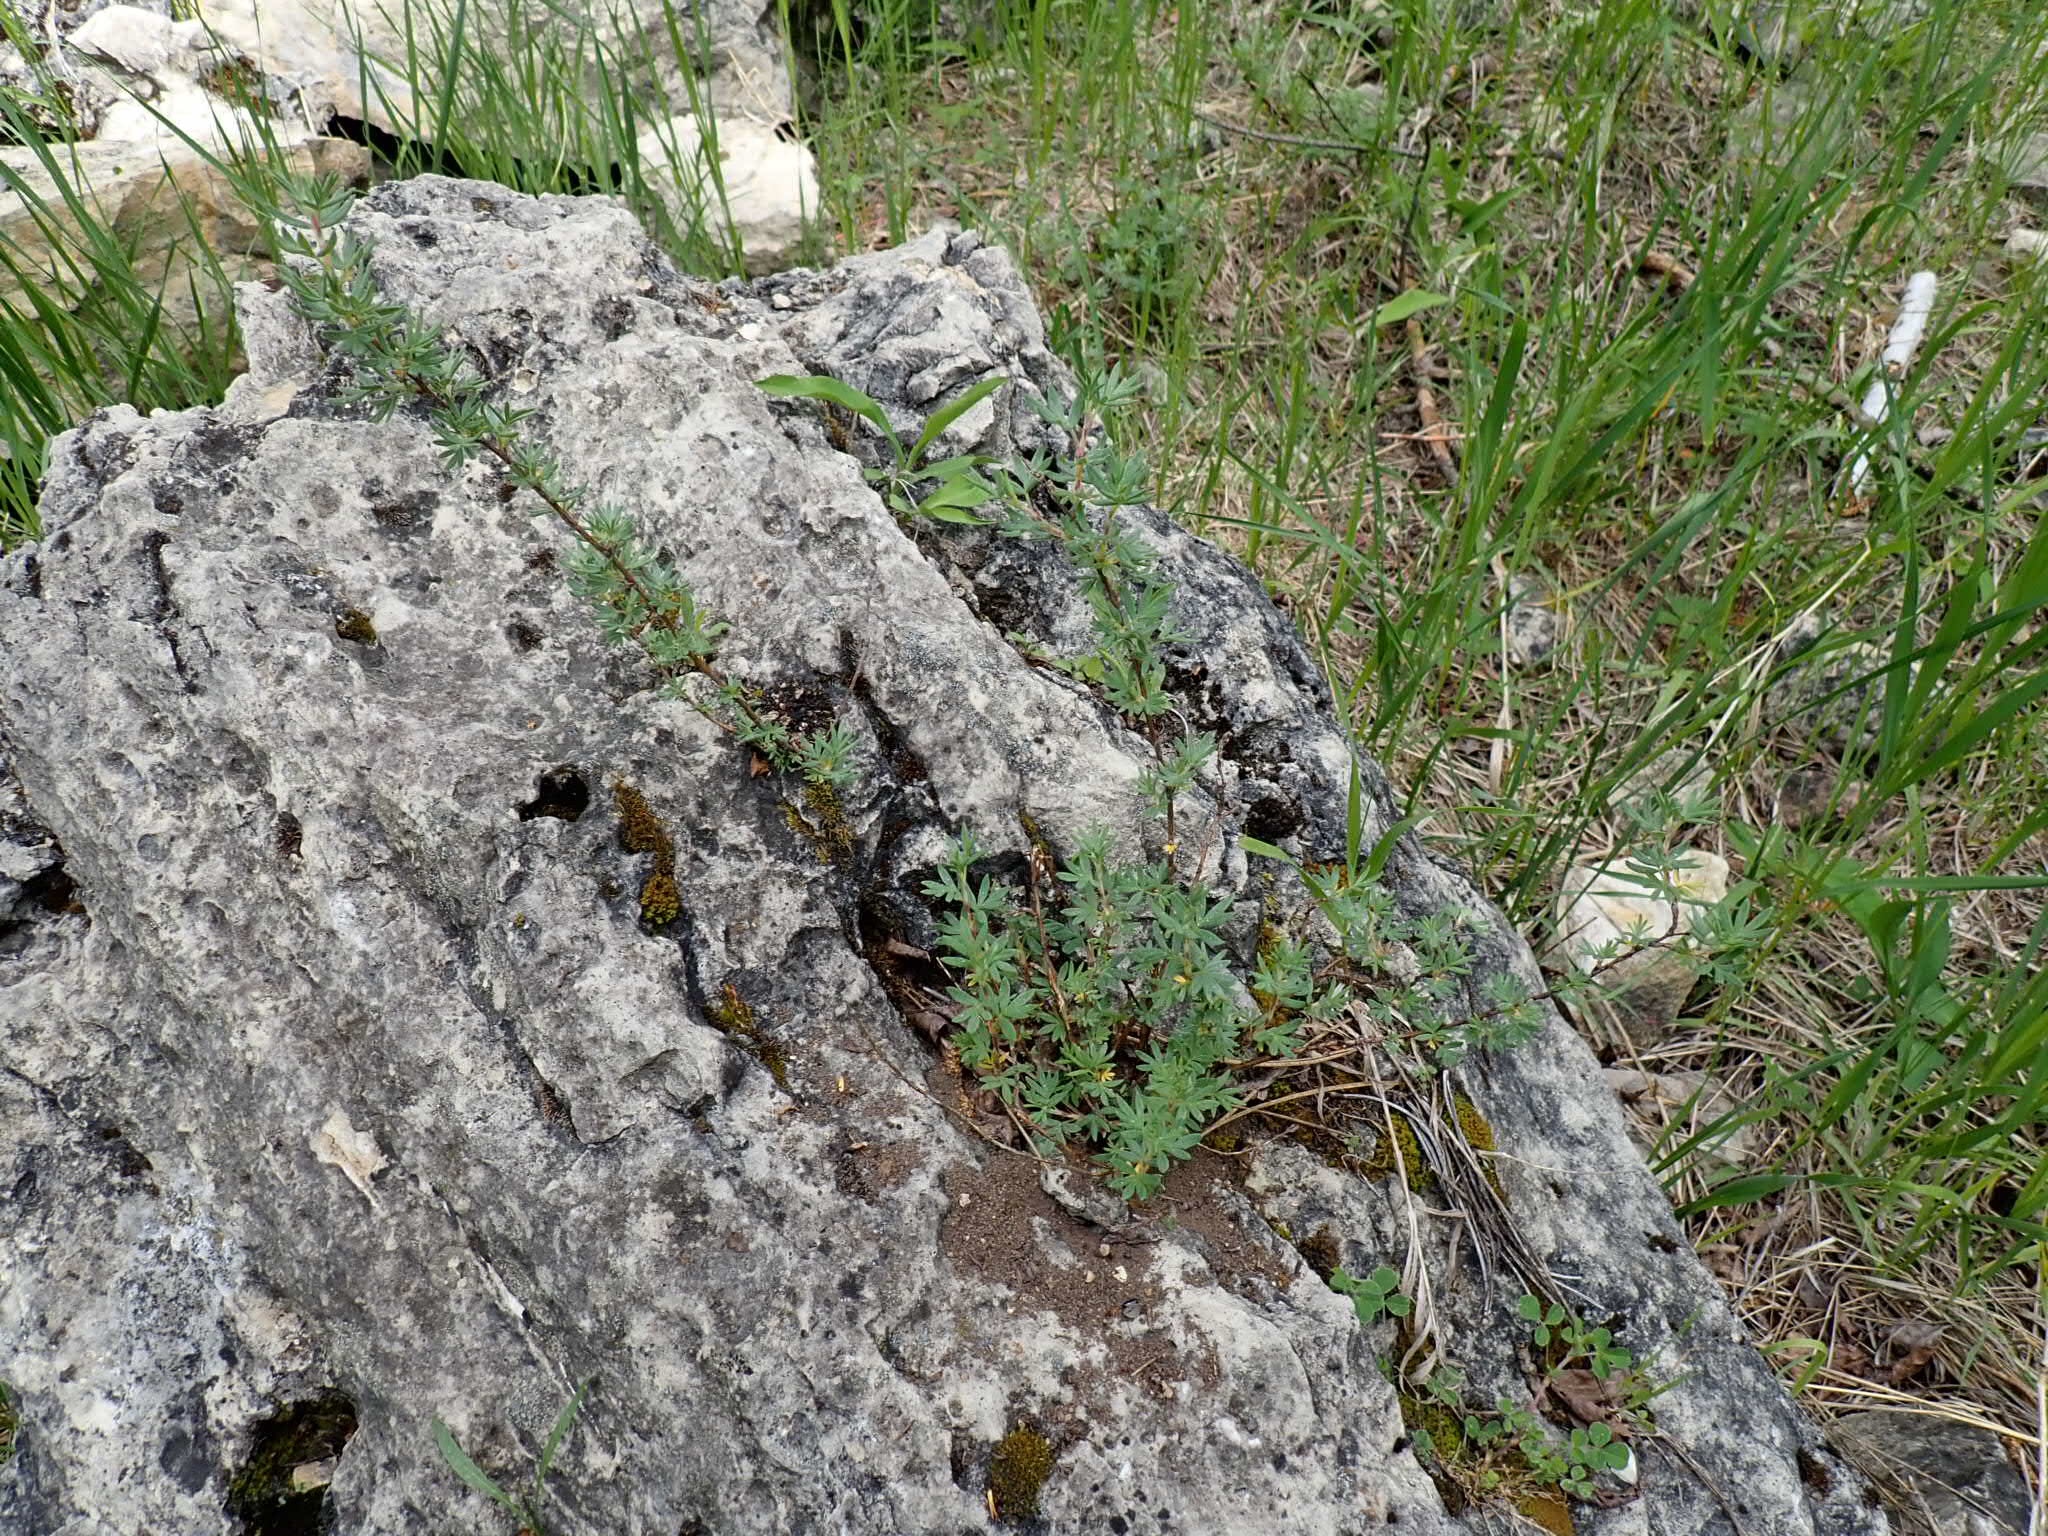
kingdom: Plantae
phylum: Tracheophyta
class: Magnoliopsida
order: Rosales
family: Rosaceae
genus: Dasiphora
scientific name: Dasiphora fruticosa
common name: Shrubby cinquefoil
